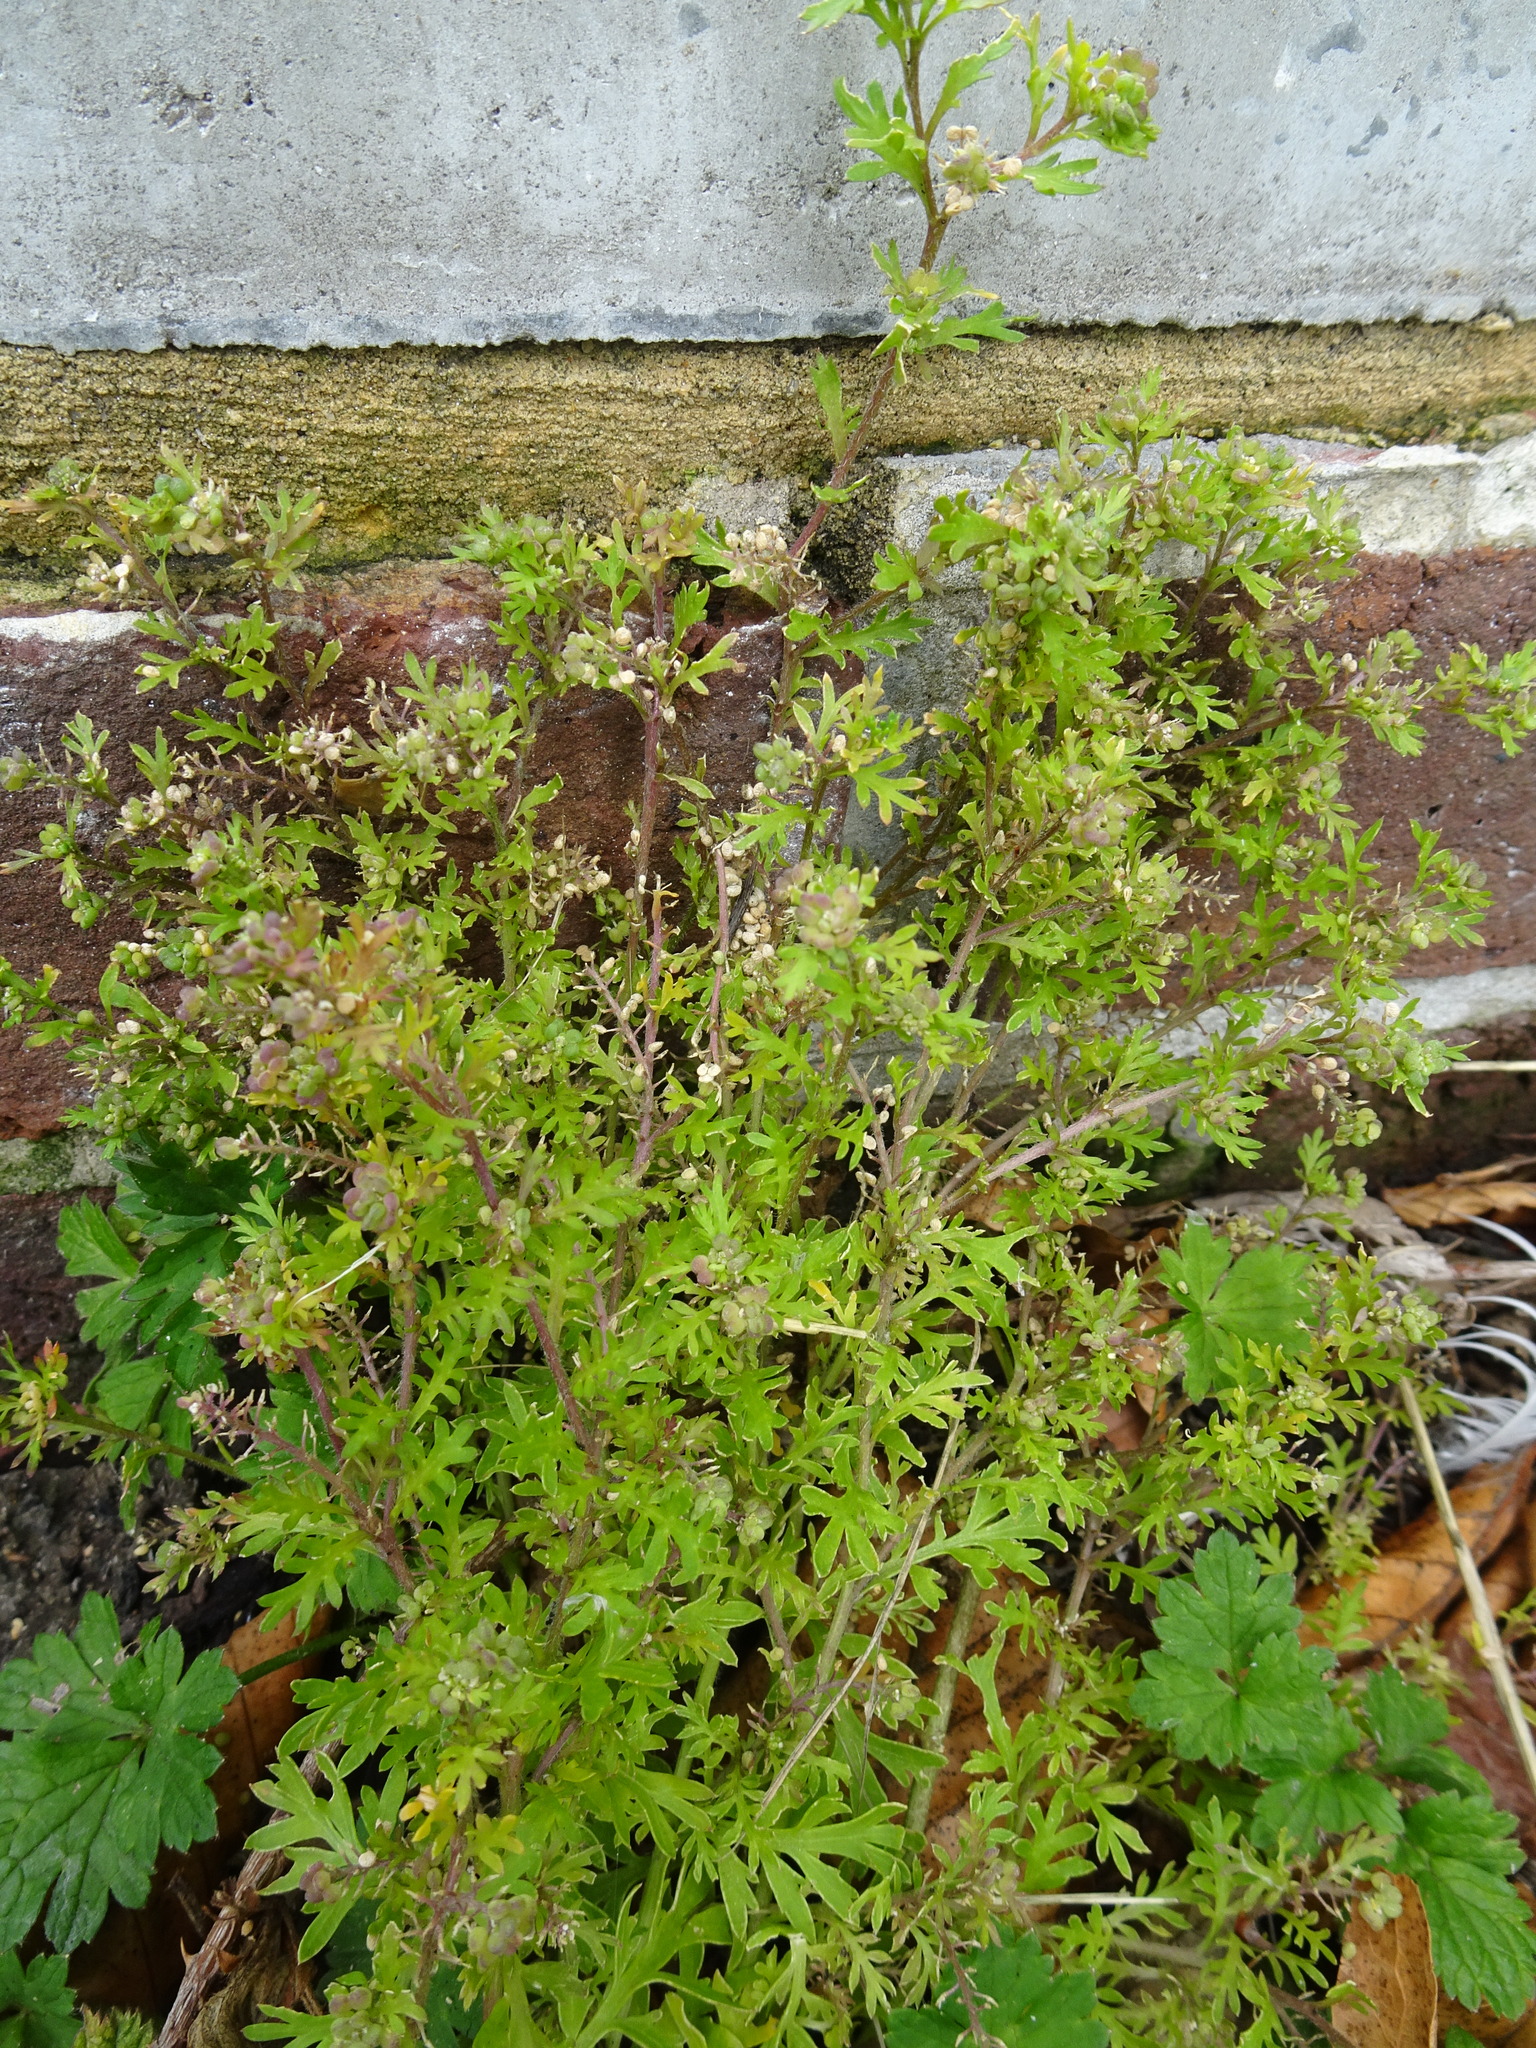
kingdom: Plantae
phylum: Tracheophyta
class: Magnoliopsida
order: Brassicales
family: Brassicaceae
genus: Lepidium
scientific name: Lepidium didymum
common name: Lesser swinecress
